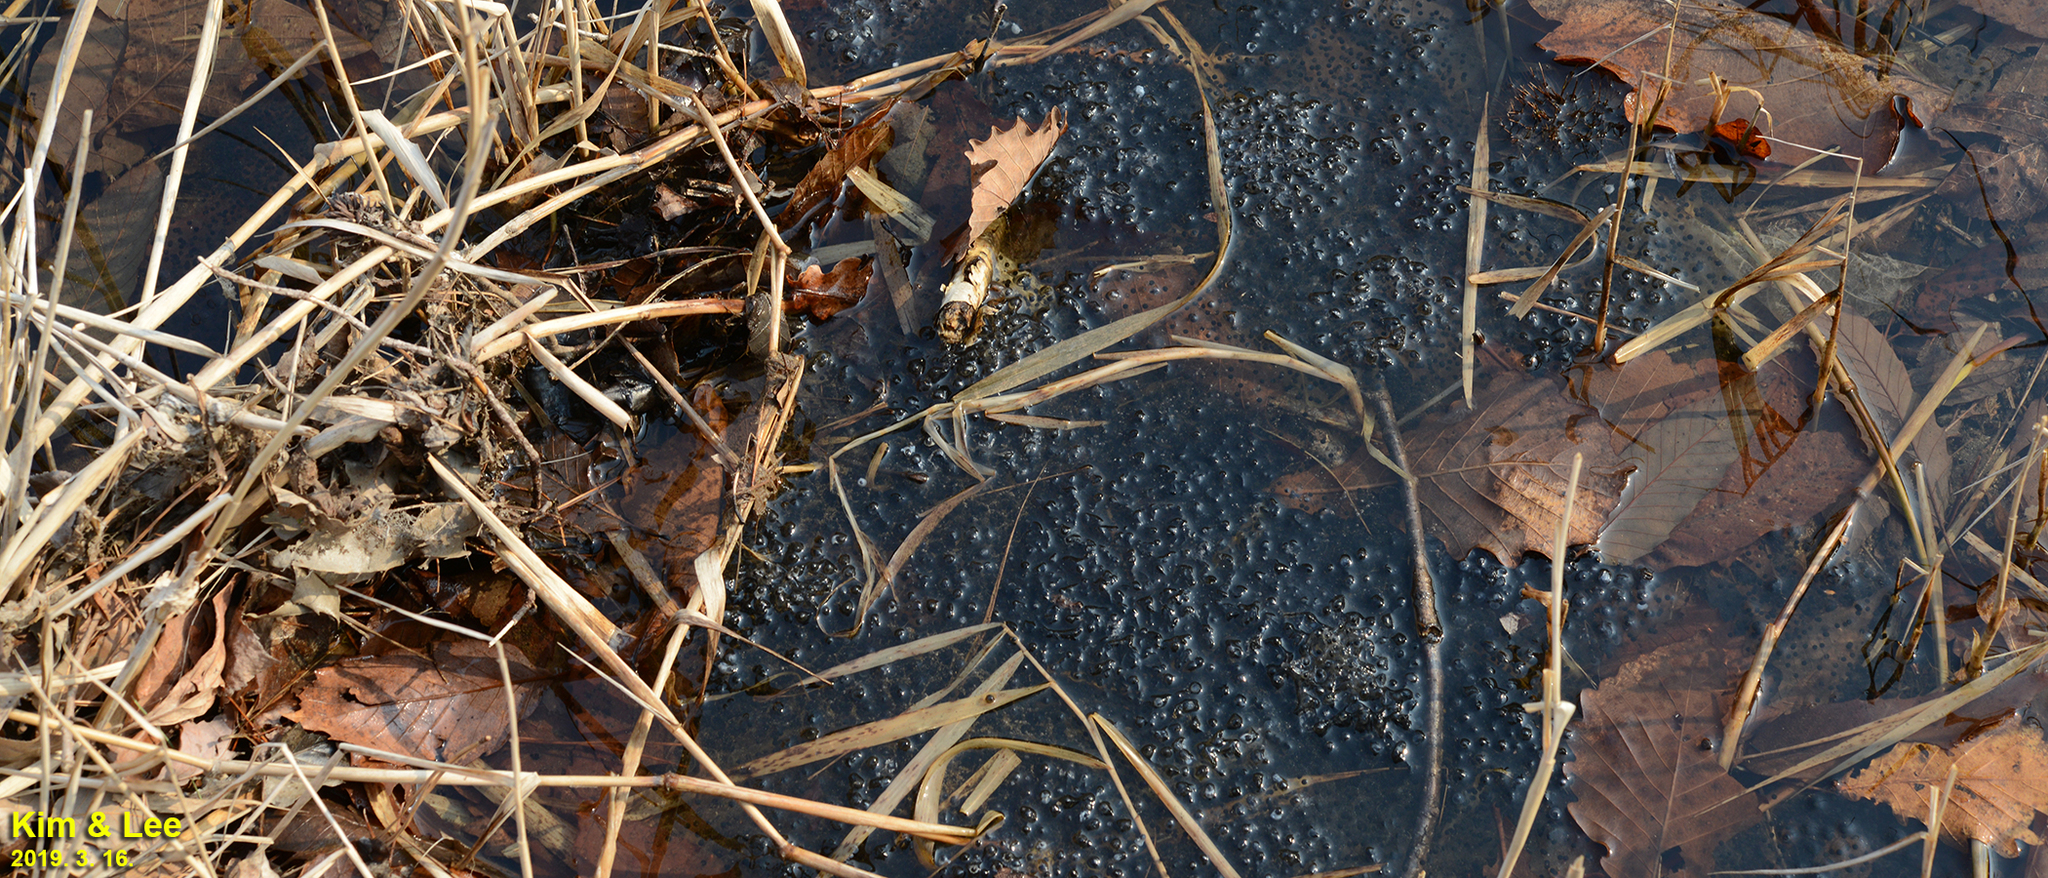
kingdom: Animalia
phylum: Chordata
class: Amphibia
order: Anura
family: Ranidae
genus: Rana
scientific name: Rana huanrenensis
